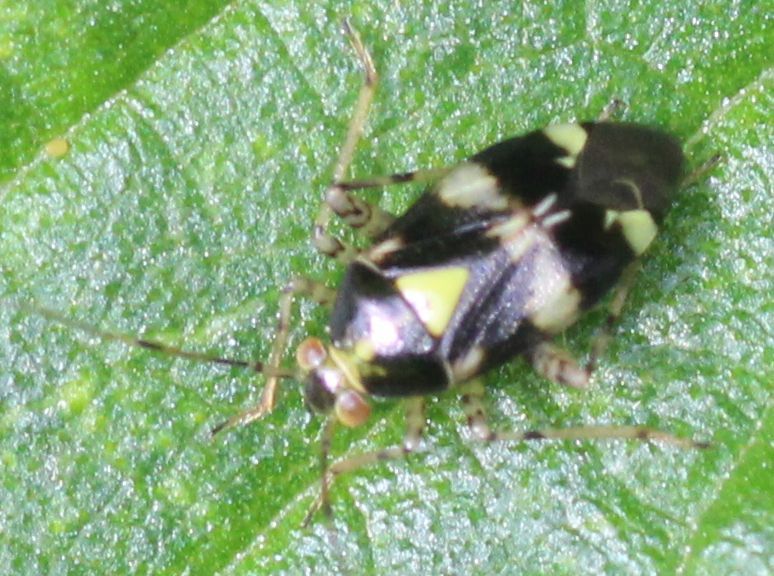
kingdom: Animalia
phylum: Arthropoda
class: Insecta
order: Hemiptera
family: Miridae
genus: Liocoris
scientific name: Liocoris tripustulatus
